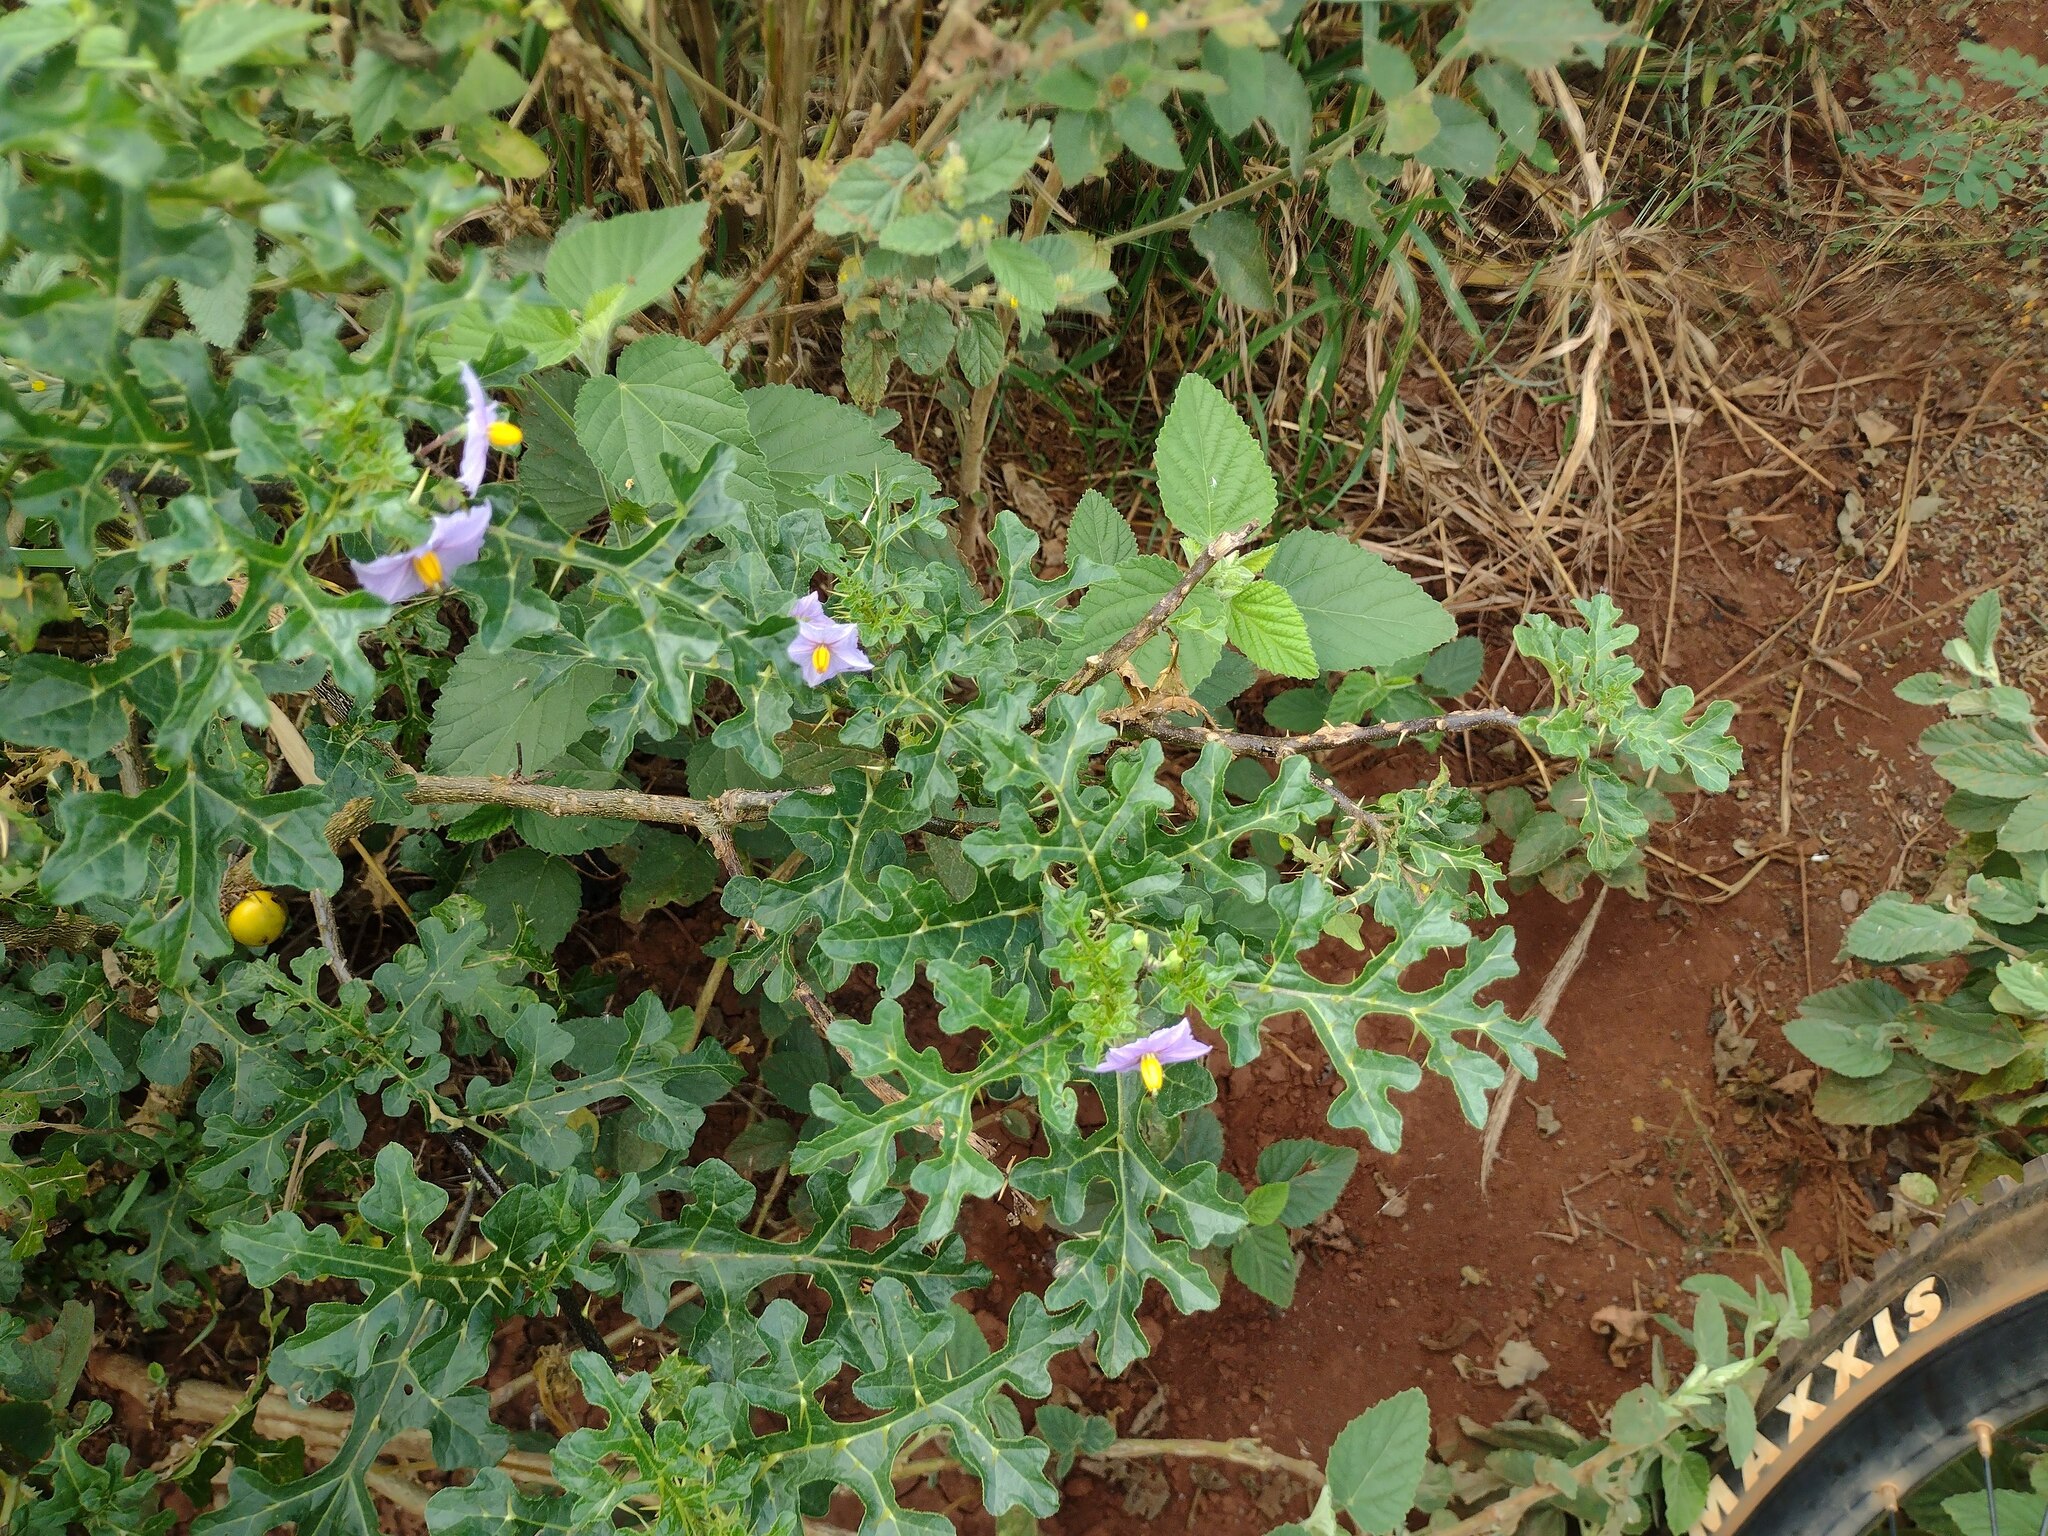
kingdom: Plantae
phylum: Tracheophyta
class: Magnoliopsida
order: Solanales
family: Solanaceae
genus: Solanum
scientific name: Solanum linnaeanum
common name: Nightshade
